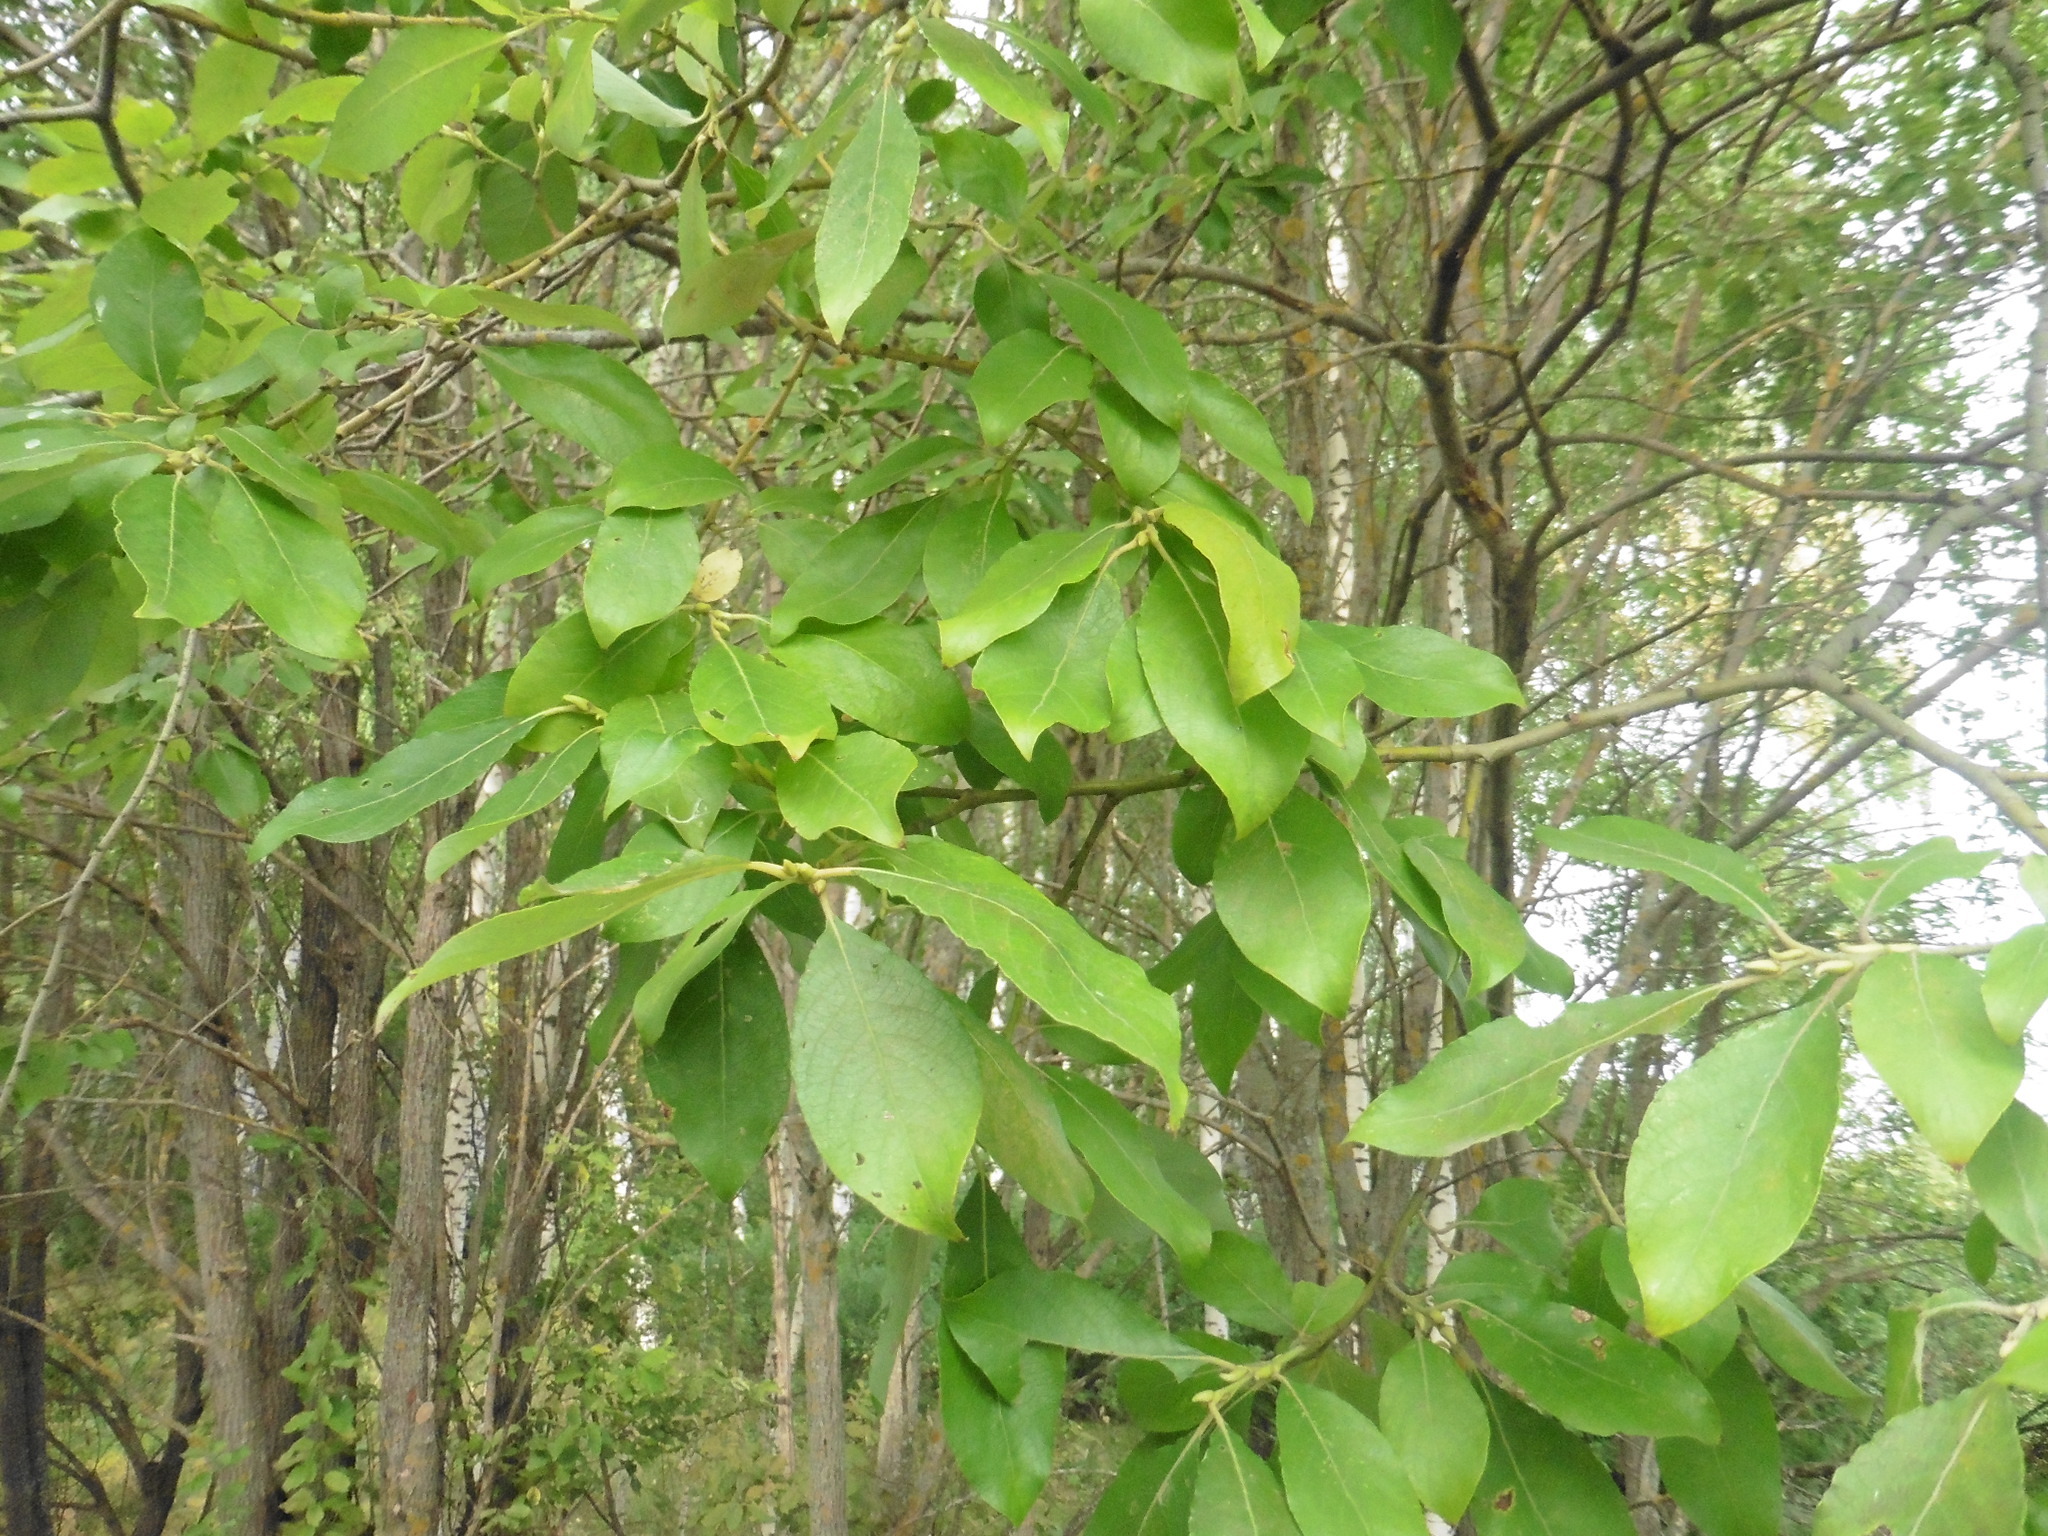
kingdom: Plantae
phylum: Tracheophyta
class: Magnoliopsida
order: Malpighiales
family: Salicaceae
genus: Salix
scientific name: Salix caprea
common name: Goat willow
